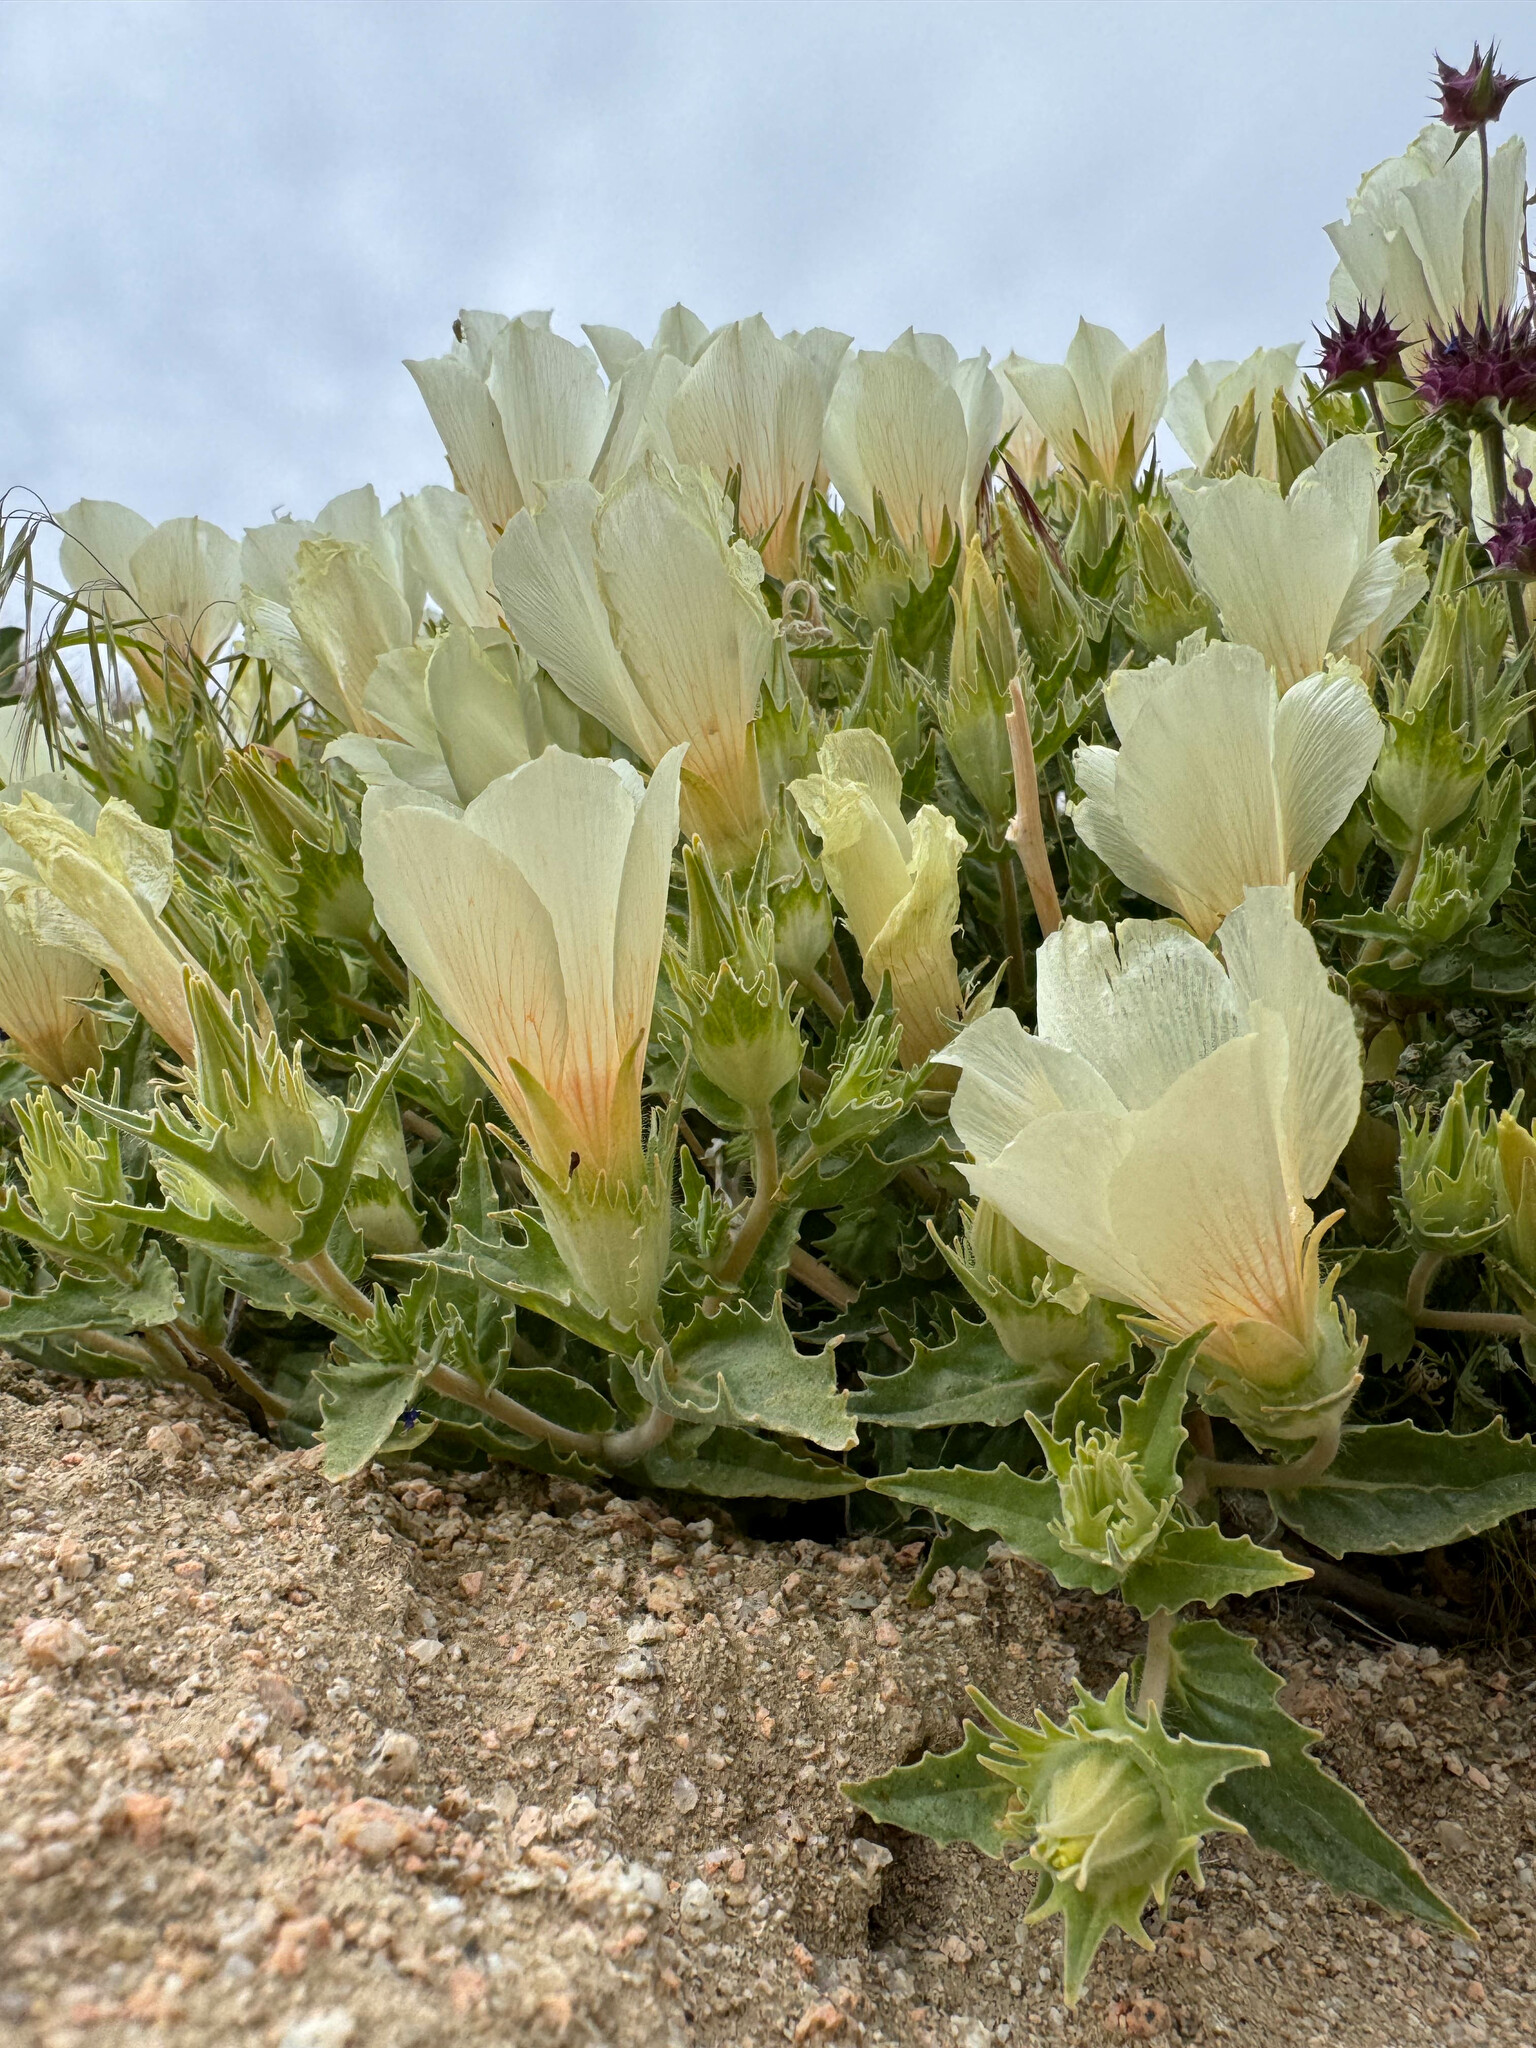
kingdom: Plantae
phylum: Tracheophyta
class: Magnoliopsida
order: Cornales
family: Loasaceae
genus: Mentzelia
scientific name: Mentzelia involucrata
